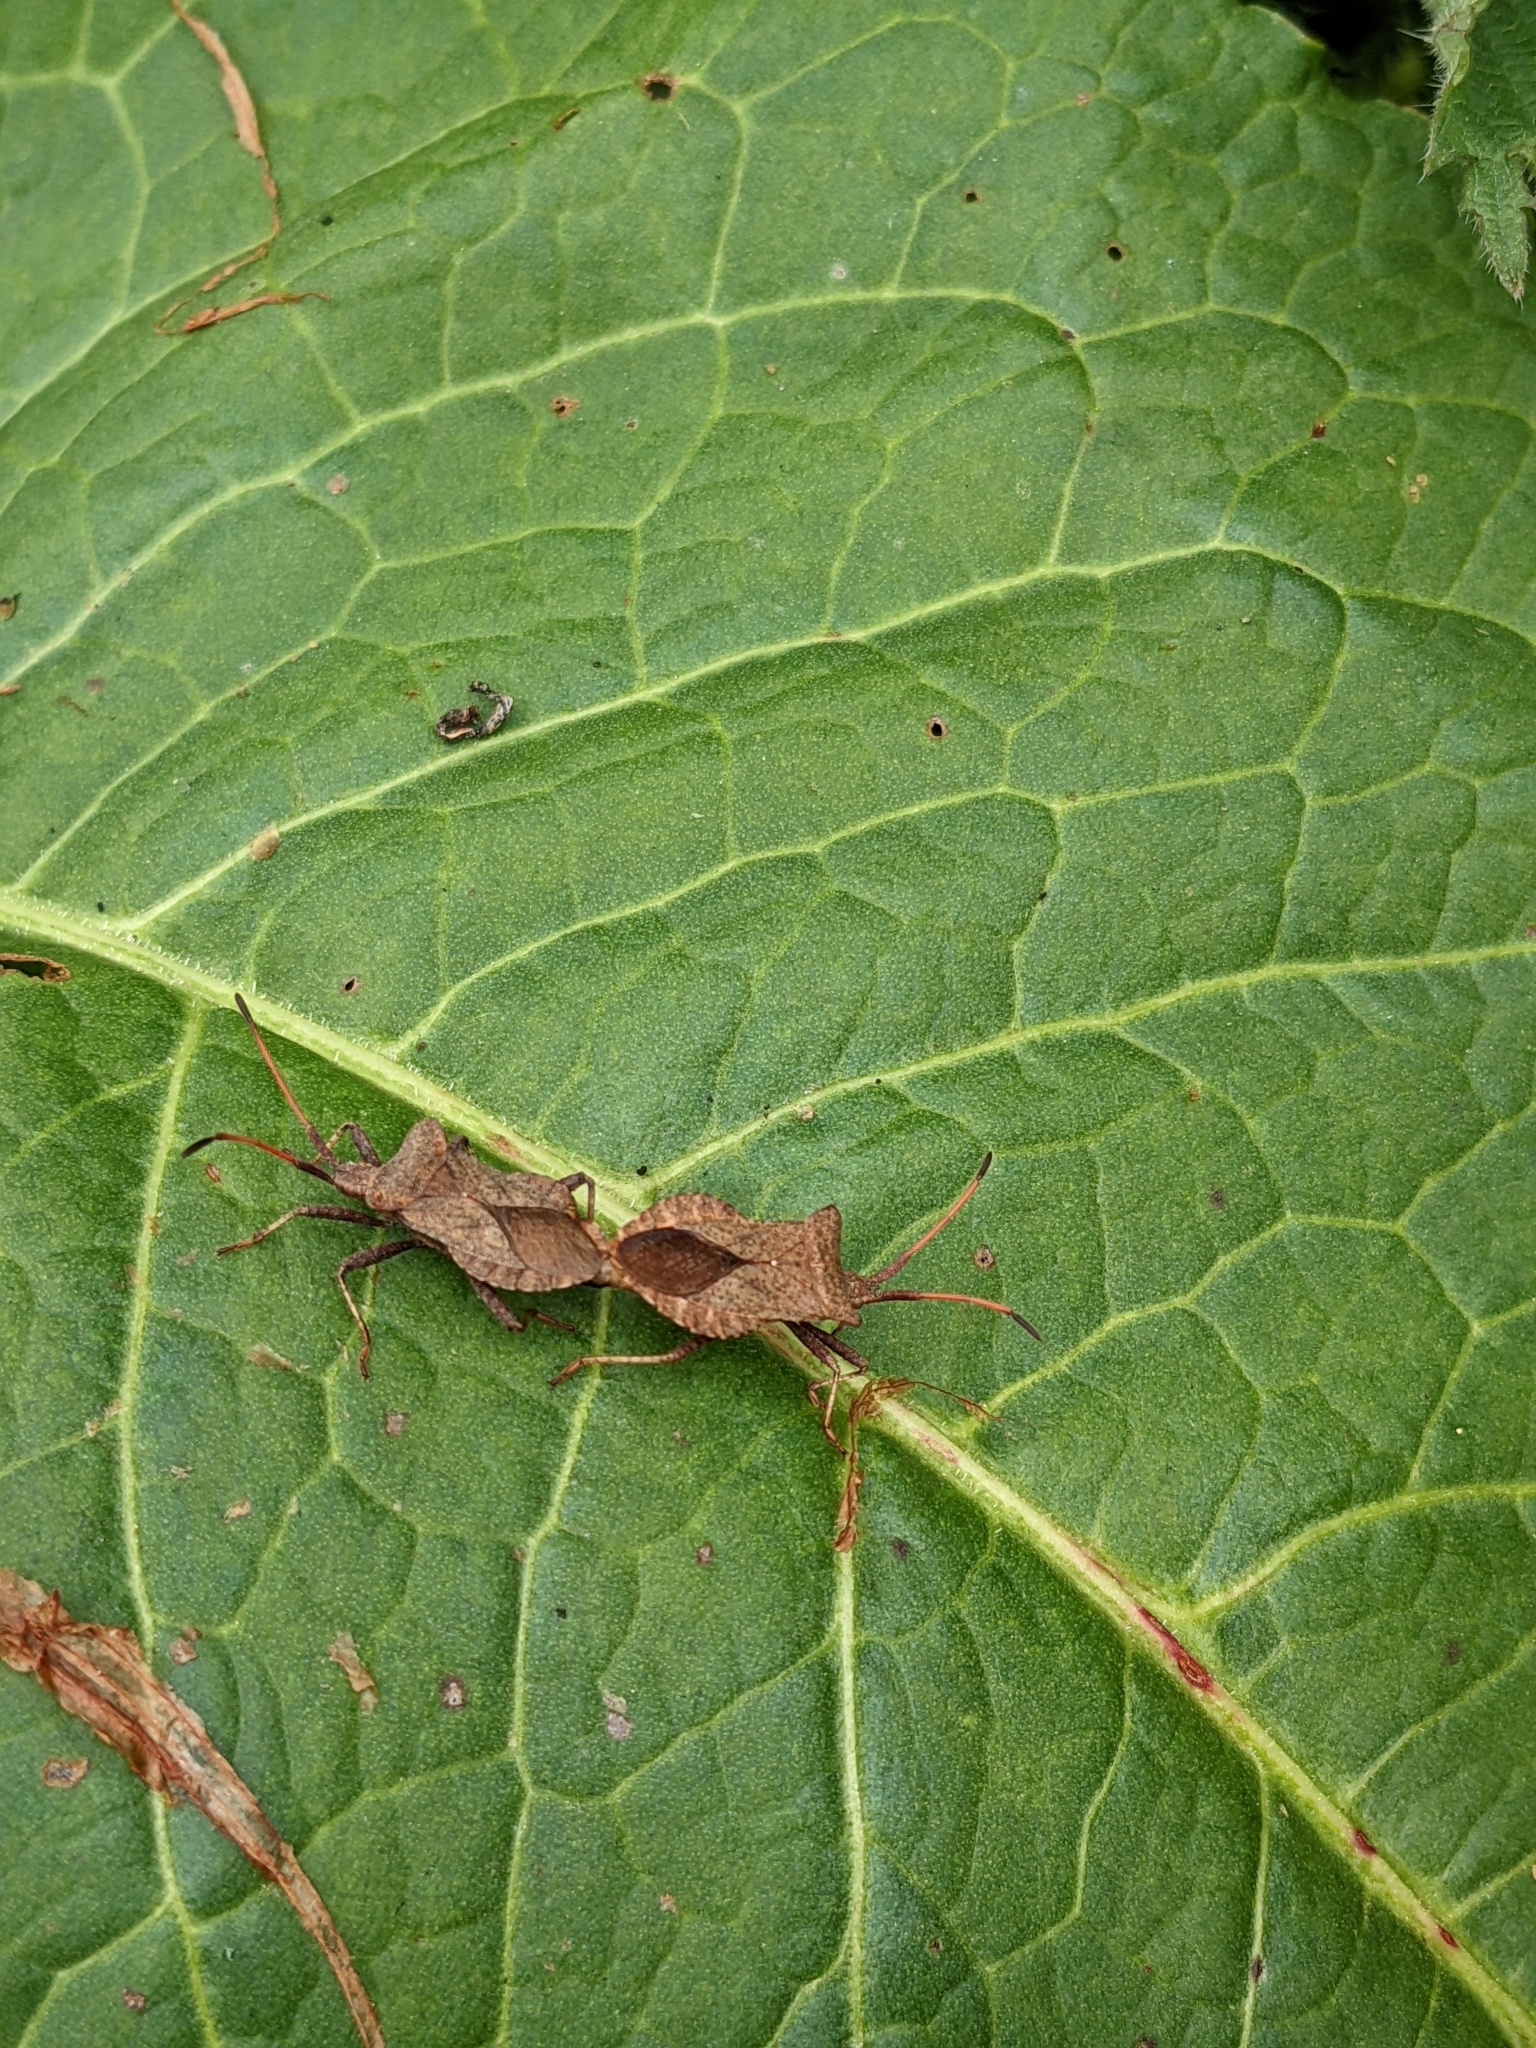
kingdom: Animalia
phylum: Arthropoda
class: Insecta
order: Hemiptera
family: Coreidae
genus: Coreus
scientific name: Coreus marginatus
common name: Dock bug
